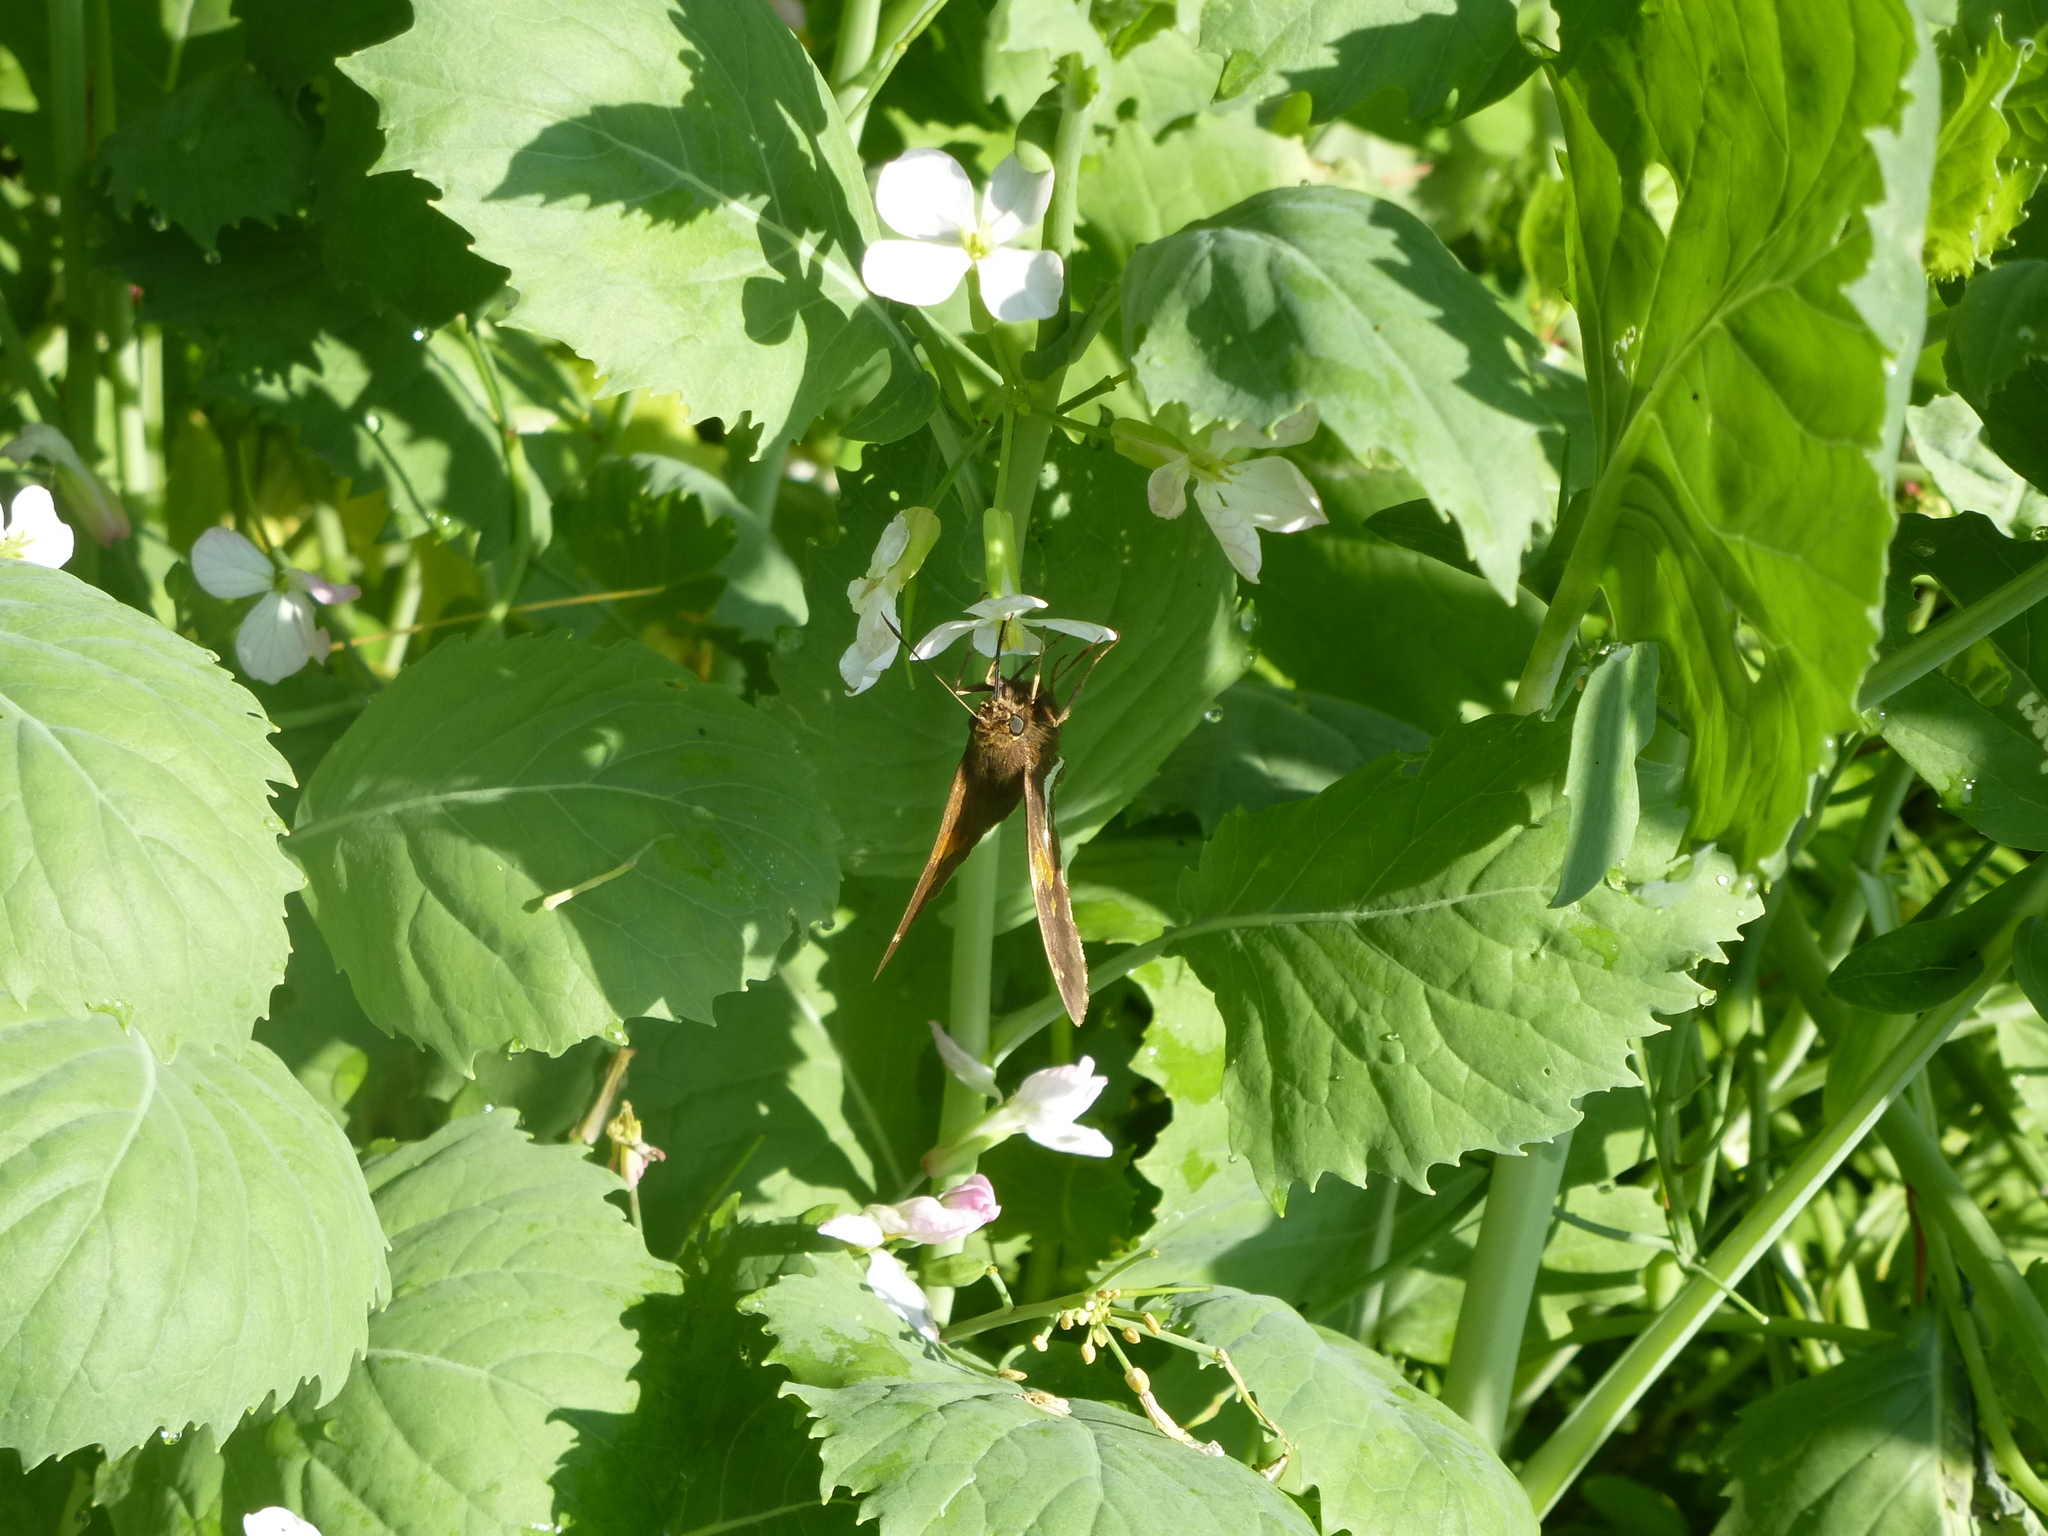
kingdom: Animalia
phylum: Arthropoda
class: Insecta
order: Lepidoptera
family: Hesperiidae
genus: Epargyreus
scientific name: Epargyreus clarus
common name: Silver-spotted skipper
